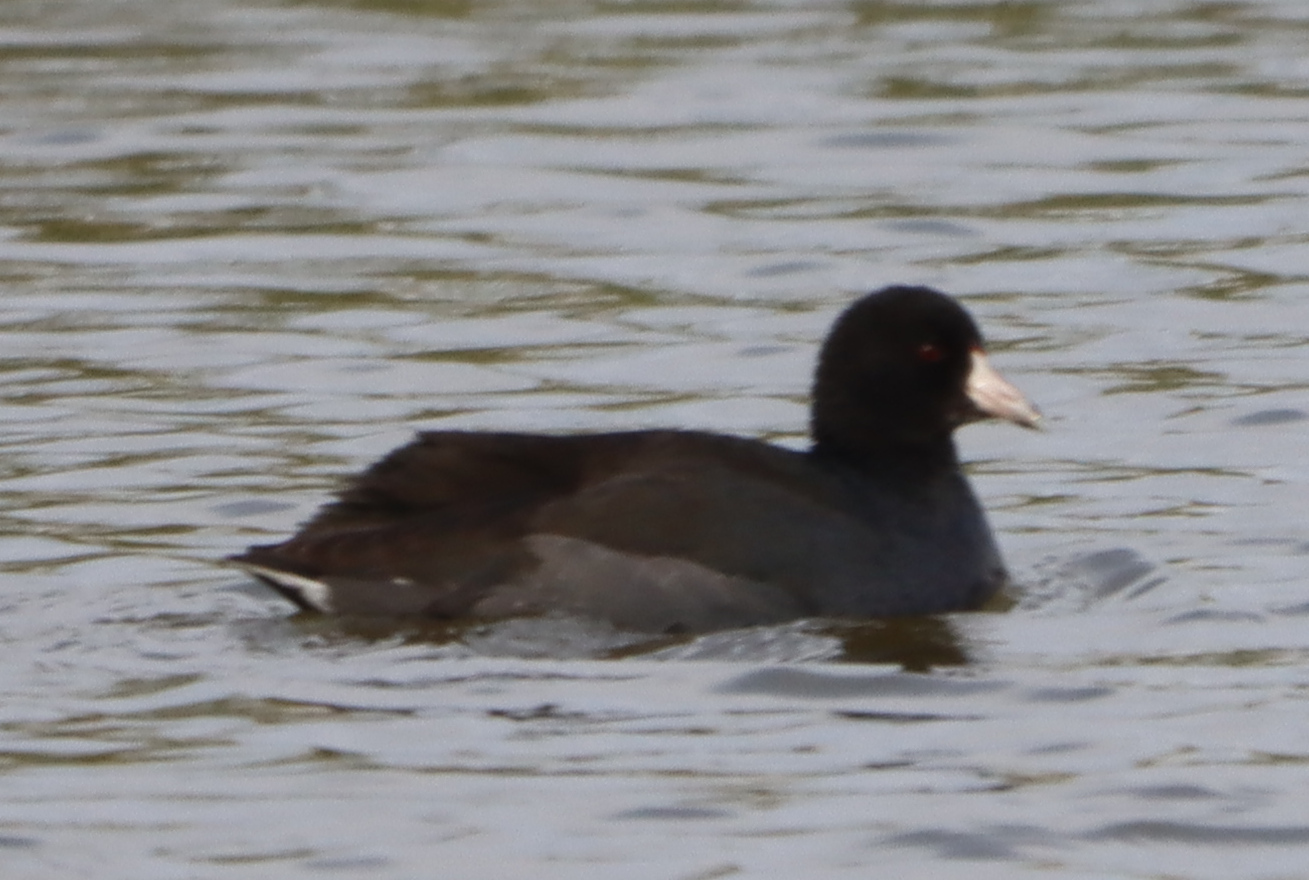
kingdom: Animalia
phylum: Chordata
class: Aves
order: Gruiformes
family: Rallidae
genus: Fulica
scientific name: Fulica americana
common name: American coot
